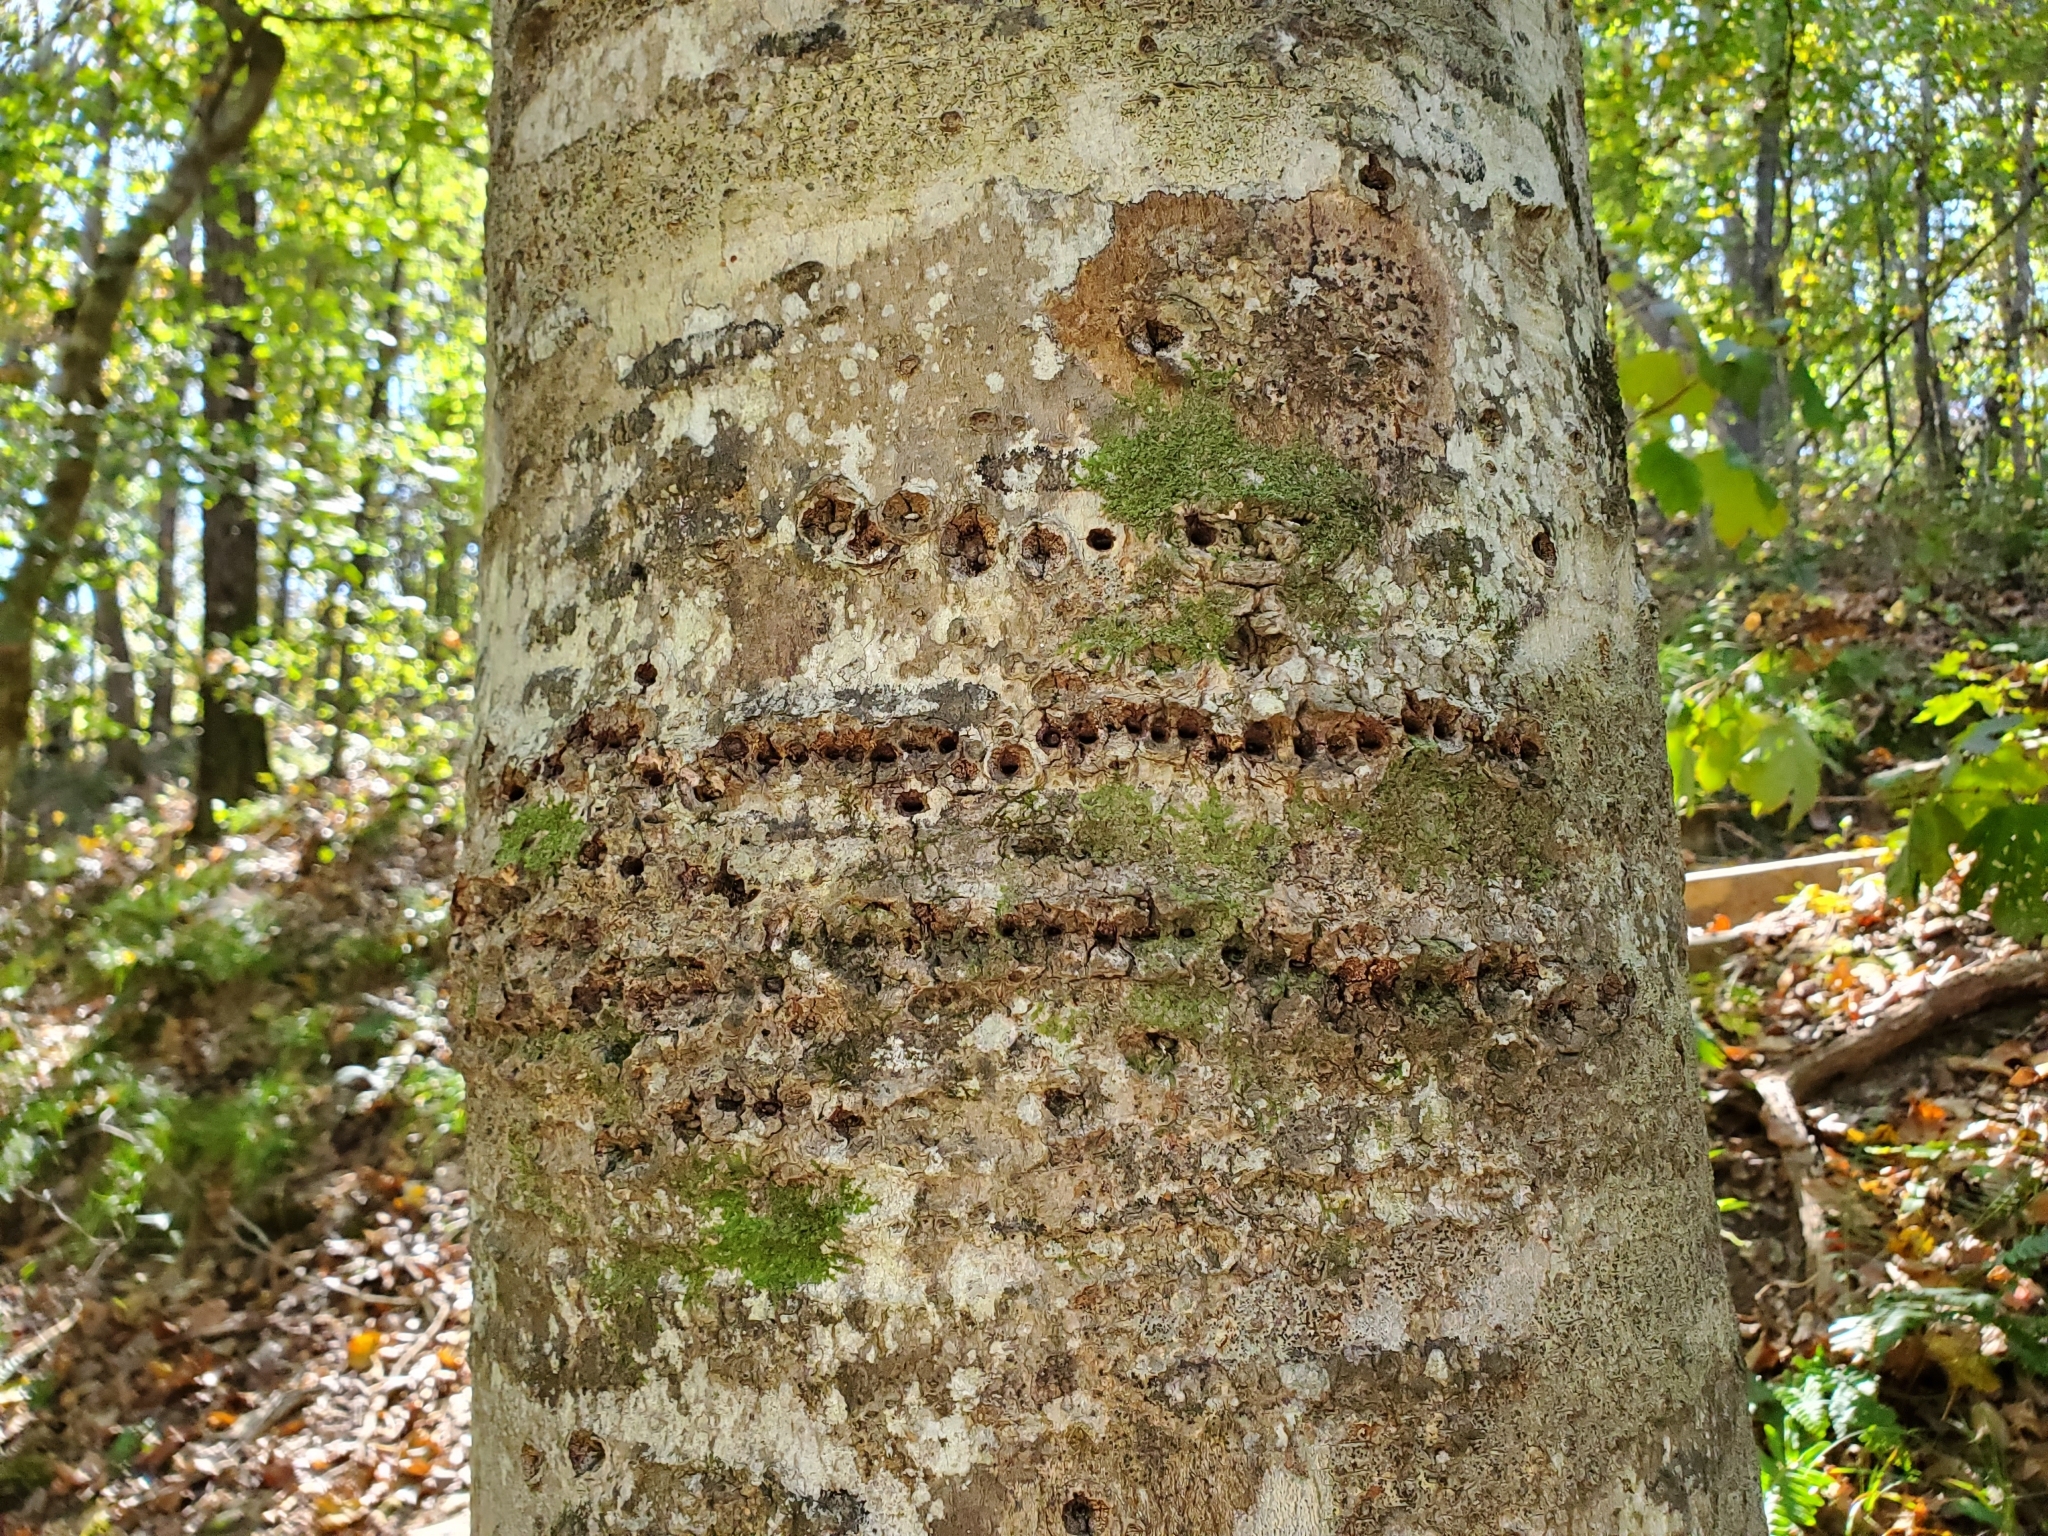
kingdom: Animalia
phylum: Chordata
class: Aves
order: Piciformes
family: Picidae
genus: Sphyrapicus
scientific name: Sphyrapicus varius
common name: Yellow-bellied sapsucker
